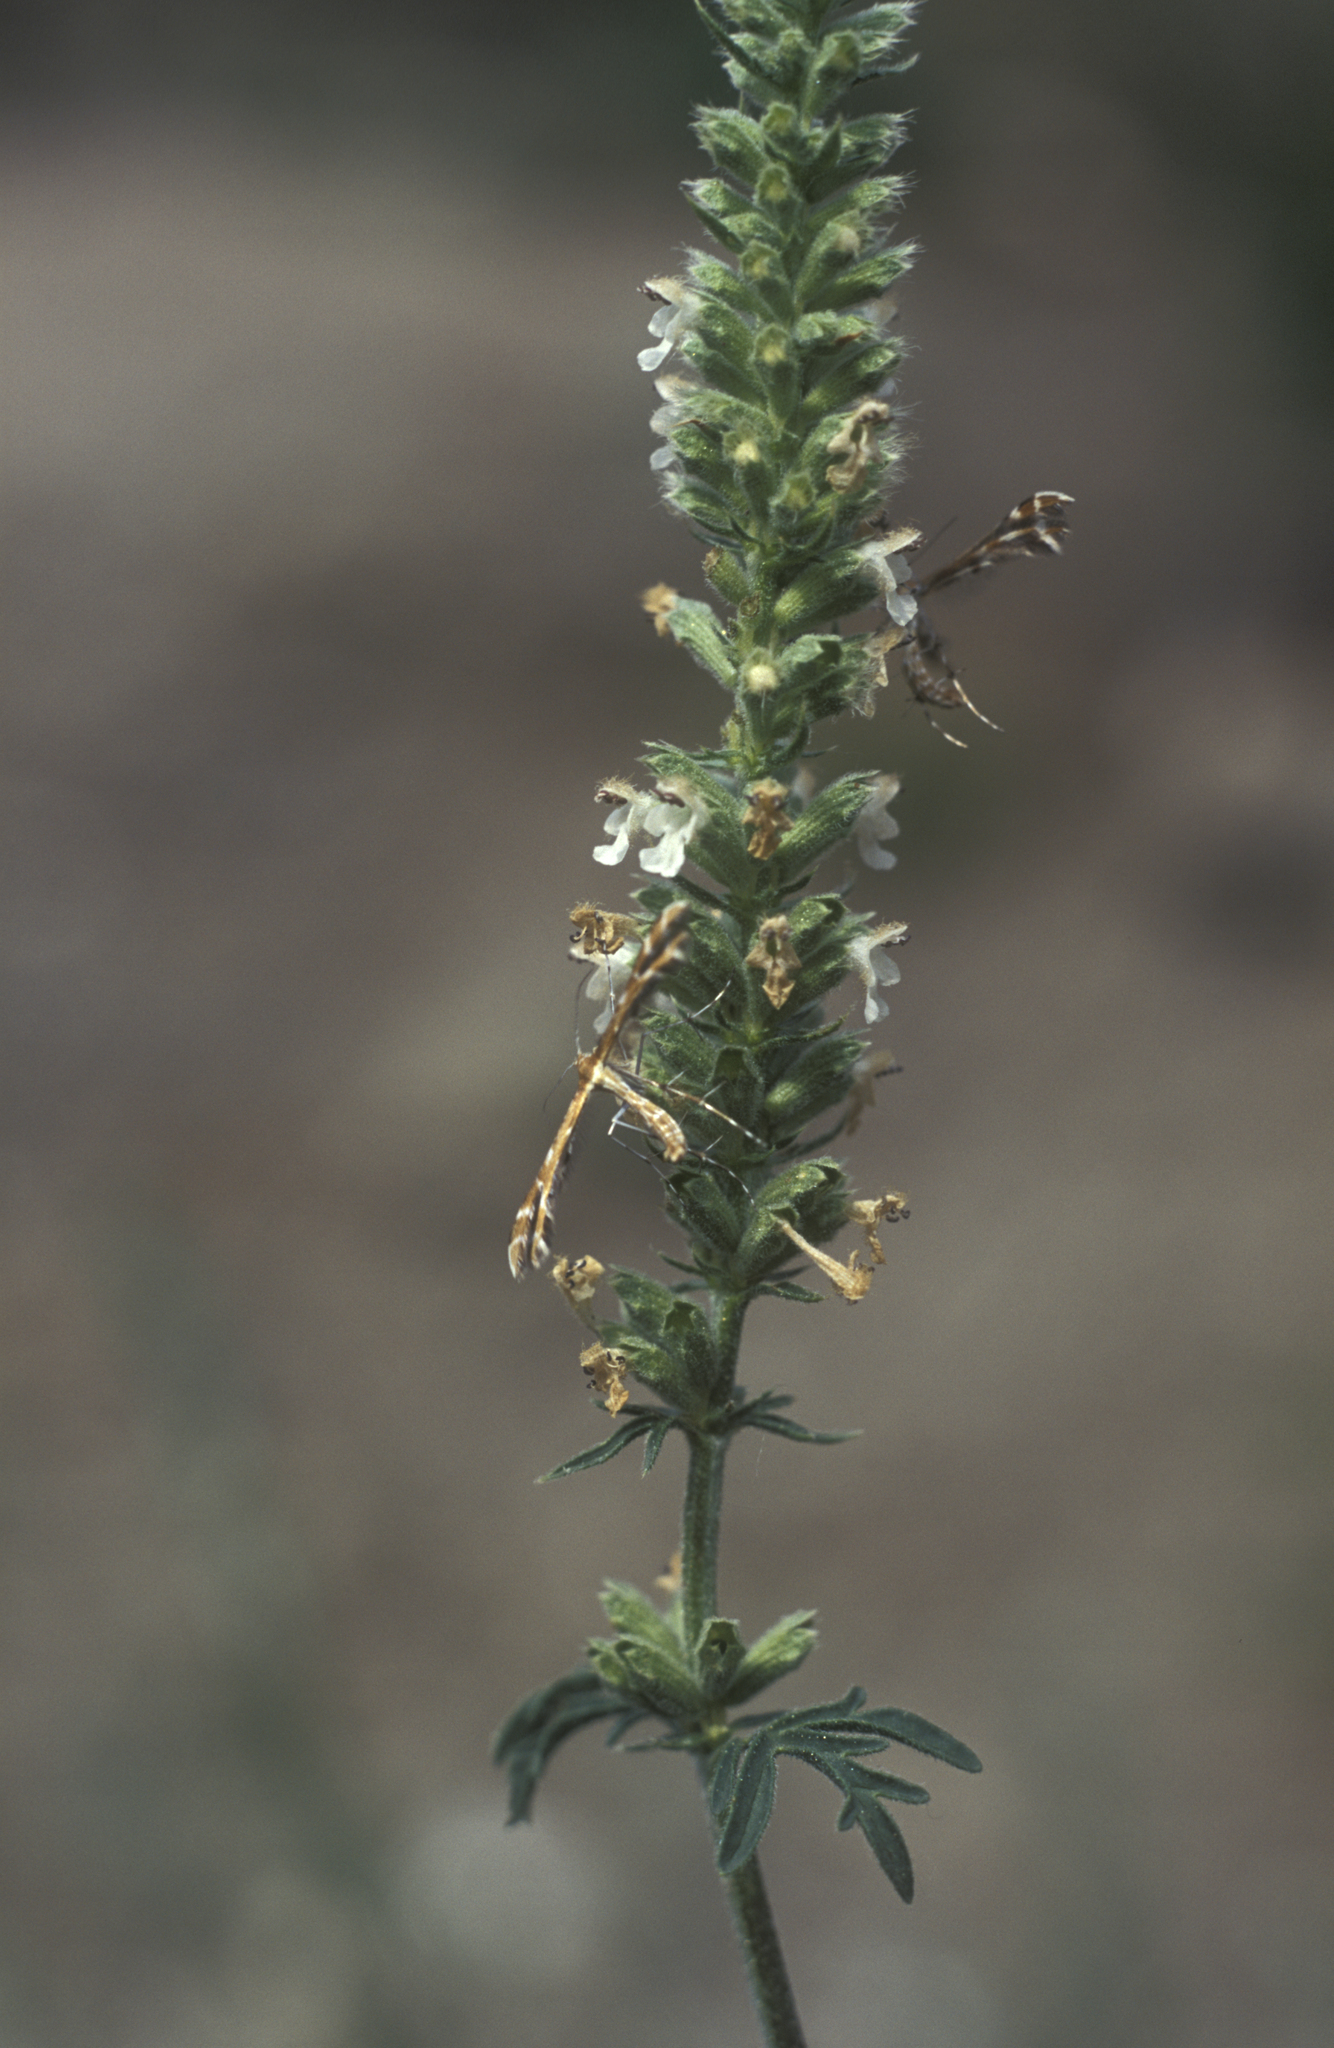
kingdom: Plantae
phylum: Tracheophyta
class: Magnoliopsida
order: Lamiales
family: Lamiaceae
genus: Nepeta
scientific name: Nepeta annua
